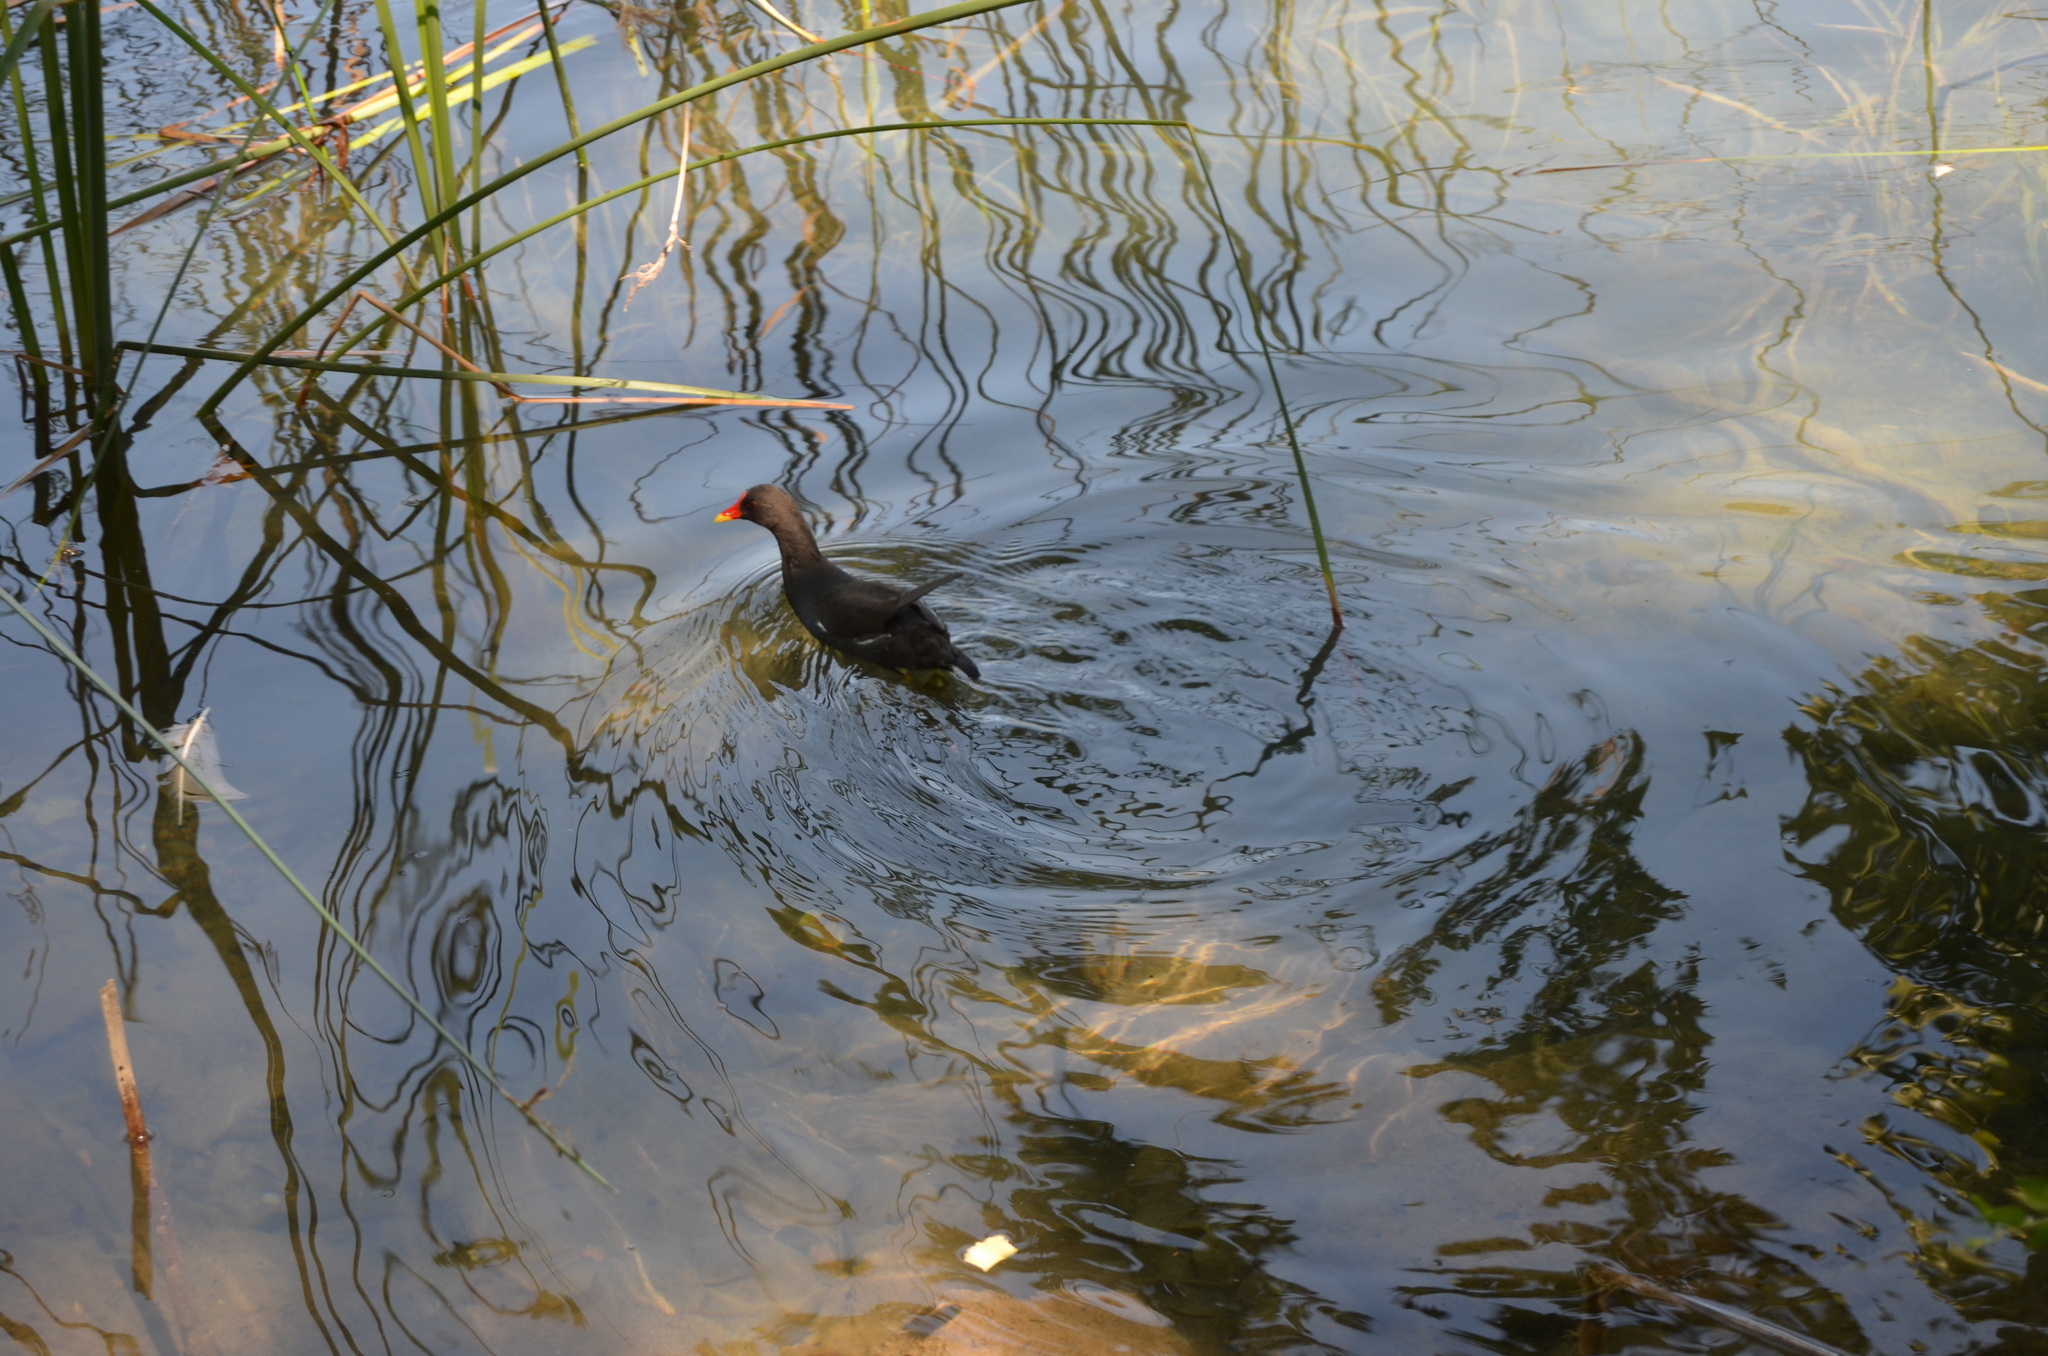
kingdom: Animalia
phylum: Chordata
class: Aves
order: Gruiformes
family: Rallidae
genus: Gallinula
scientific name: Gallinula chloropus
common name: Common moorhen
